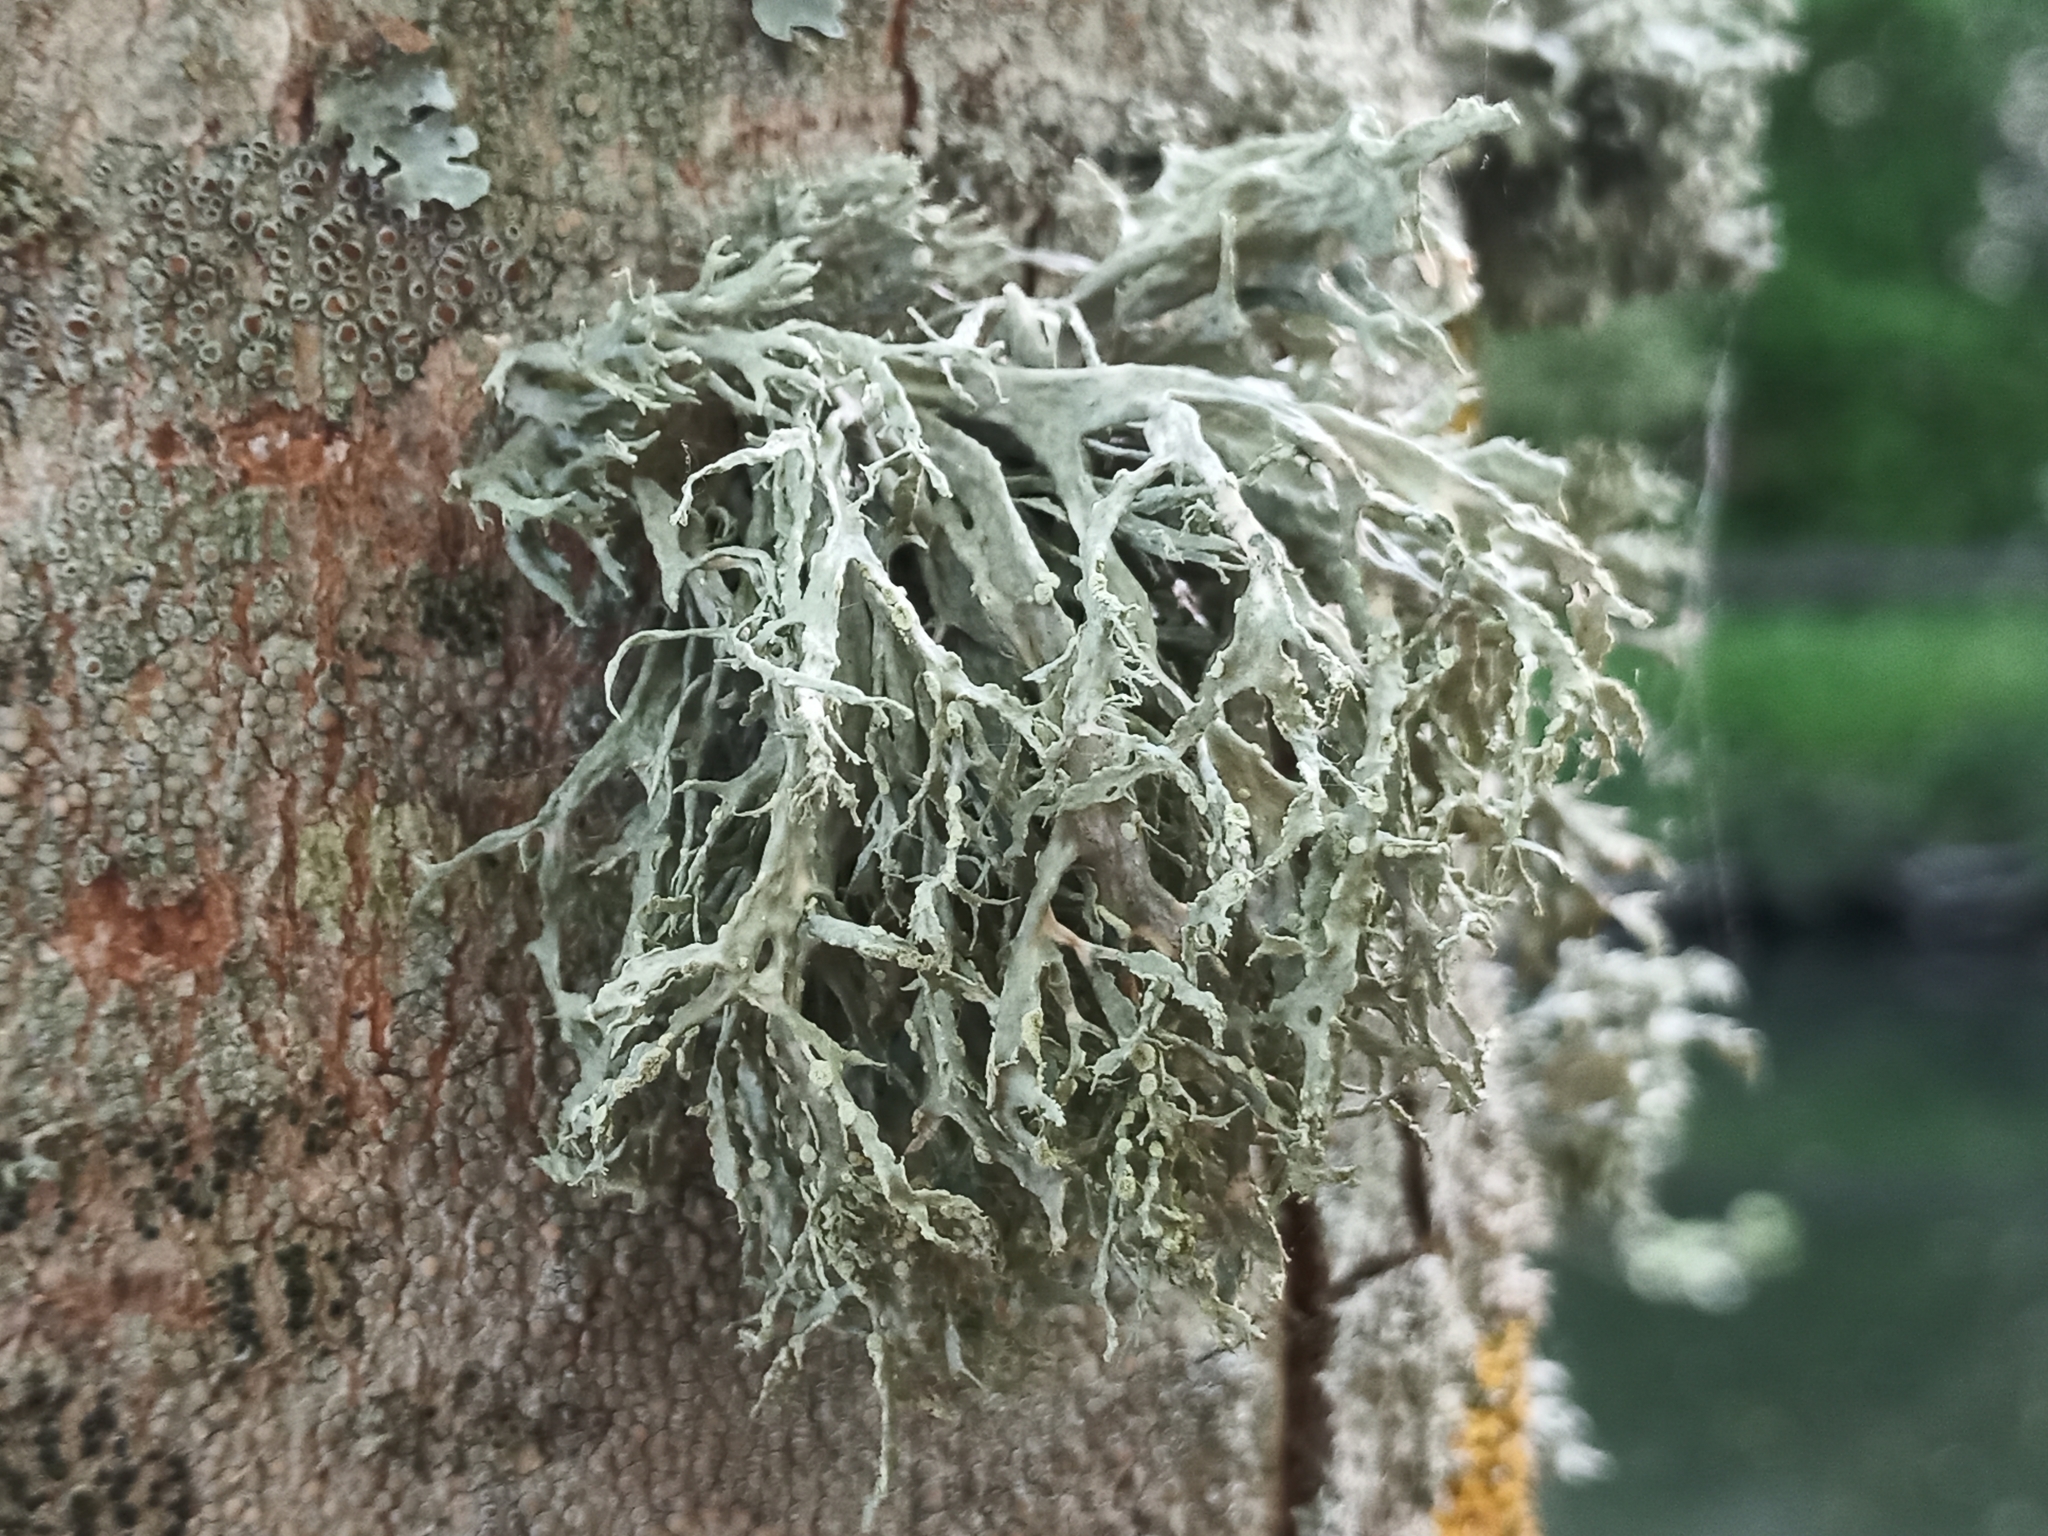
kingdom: Fungi
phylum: Ascomycota
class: Lecanoromycetes
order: Lecanorales
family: Ramalinaceae
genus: Ramalina
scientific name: Ramalina farinacea
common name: Farinose cartilage lichen
